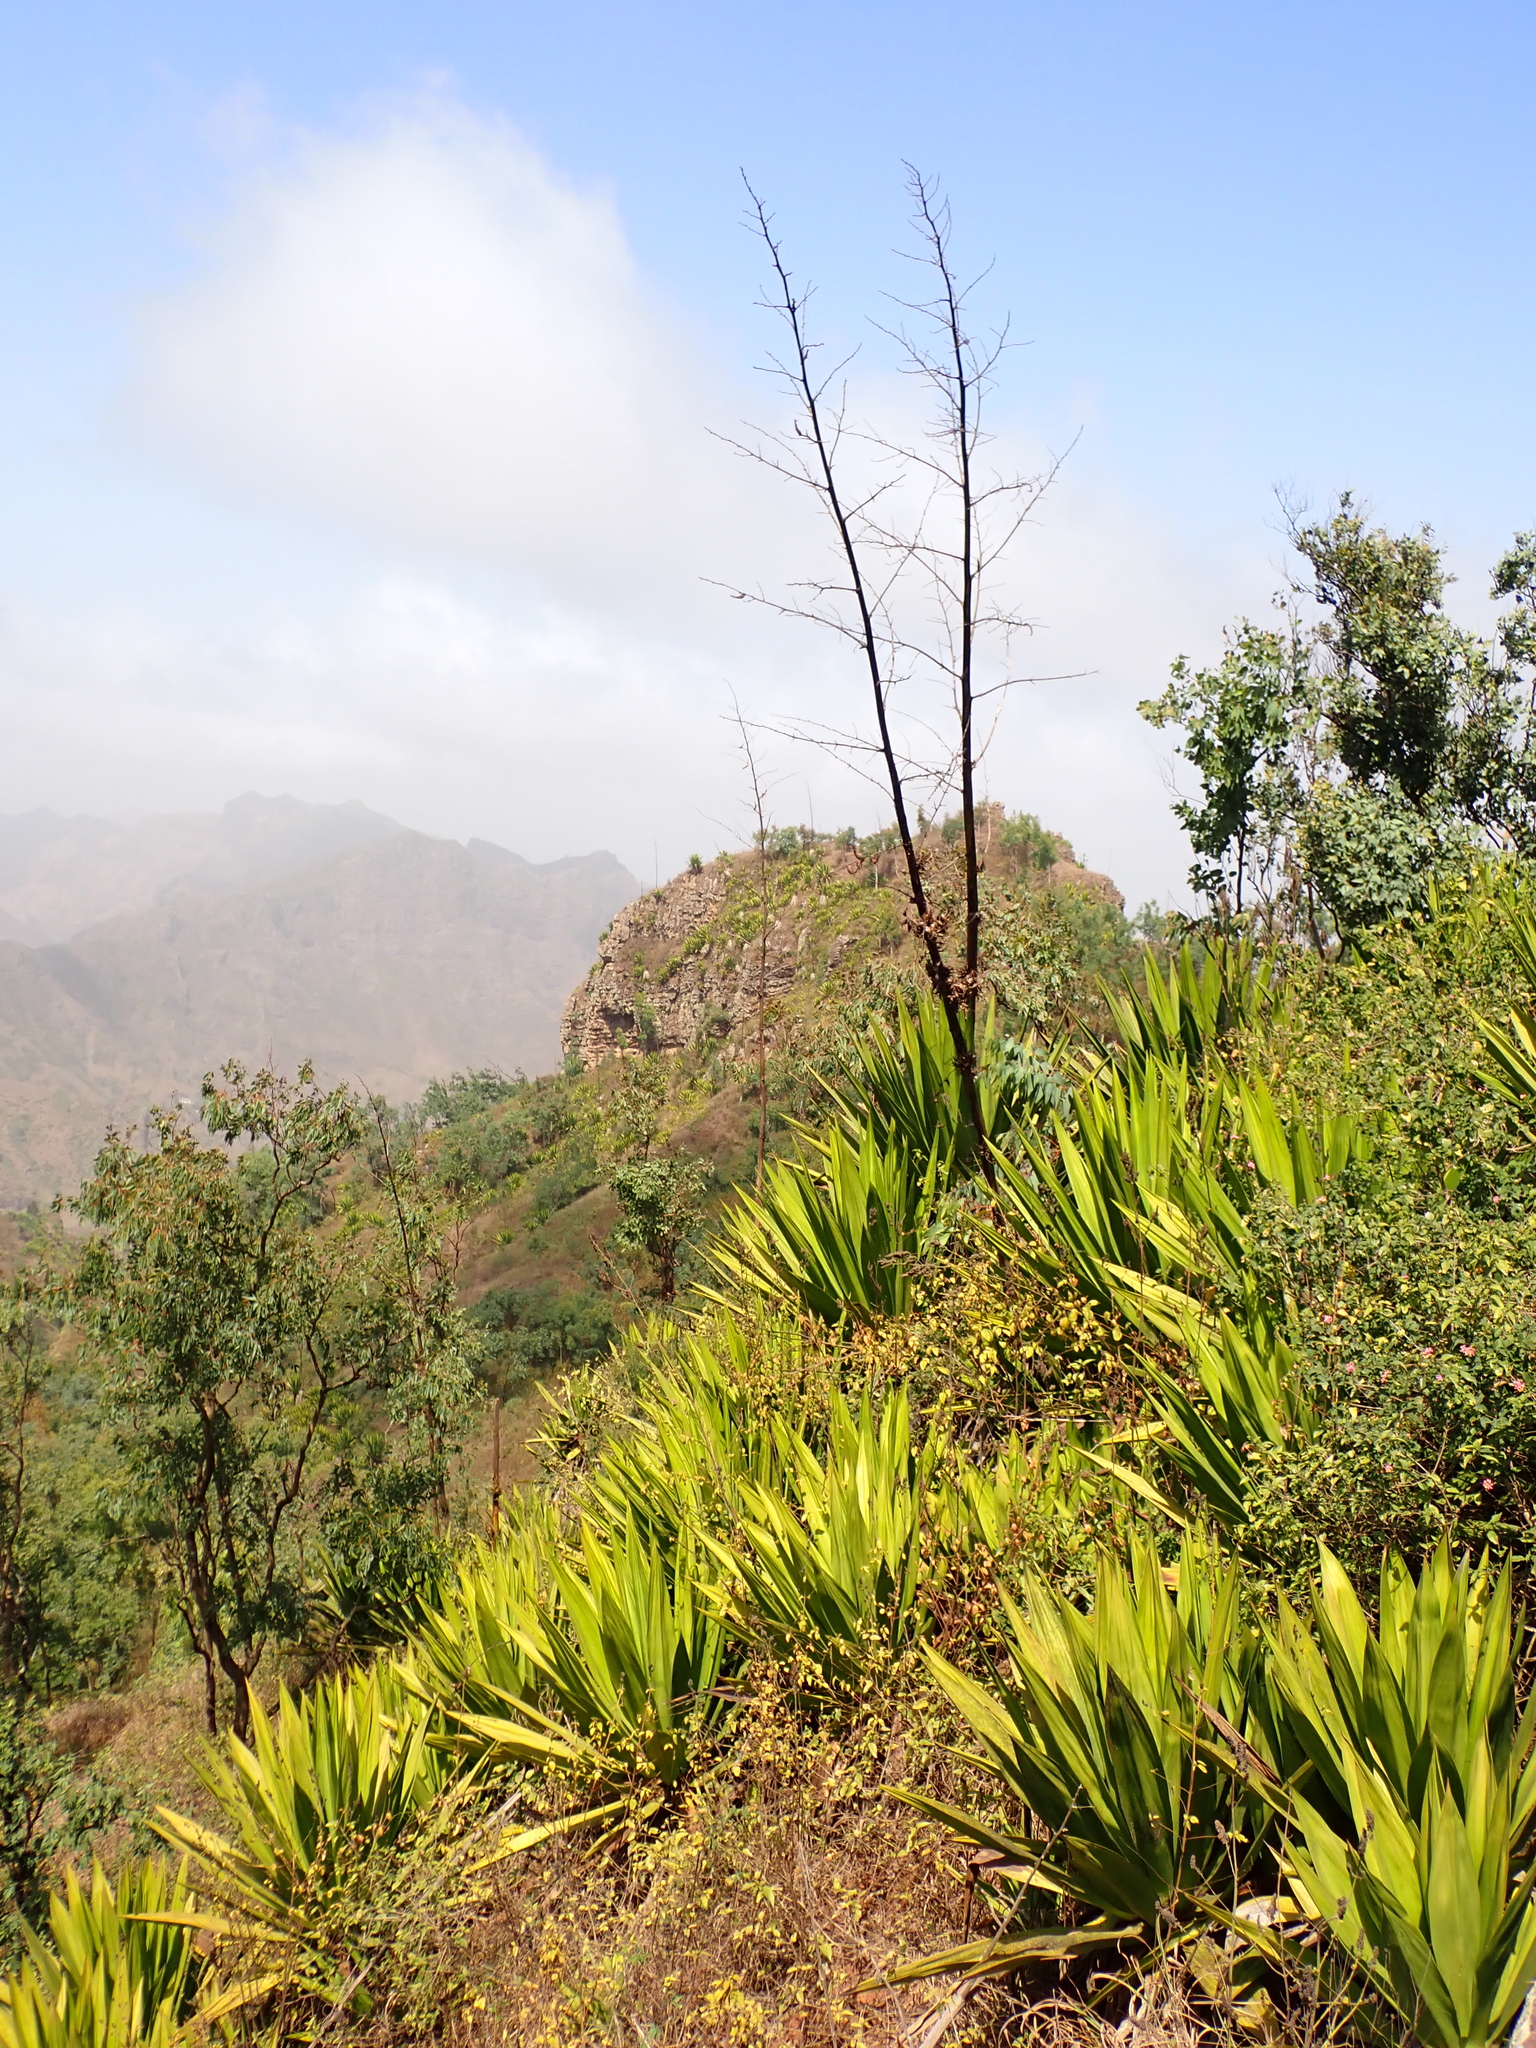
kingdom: Plantae
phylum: Tracheophyta
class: Liliopsida
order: Asparagales
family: Asparagaceae
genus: Furcraea
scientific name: Furcraea foetida
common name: Mauritius hemp
